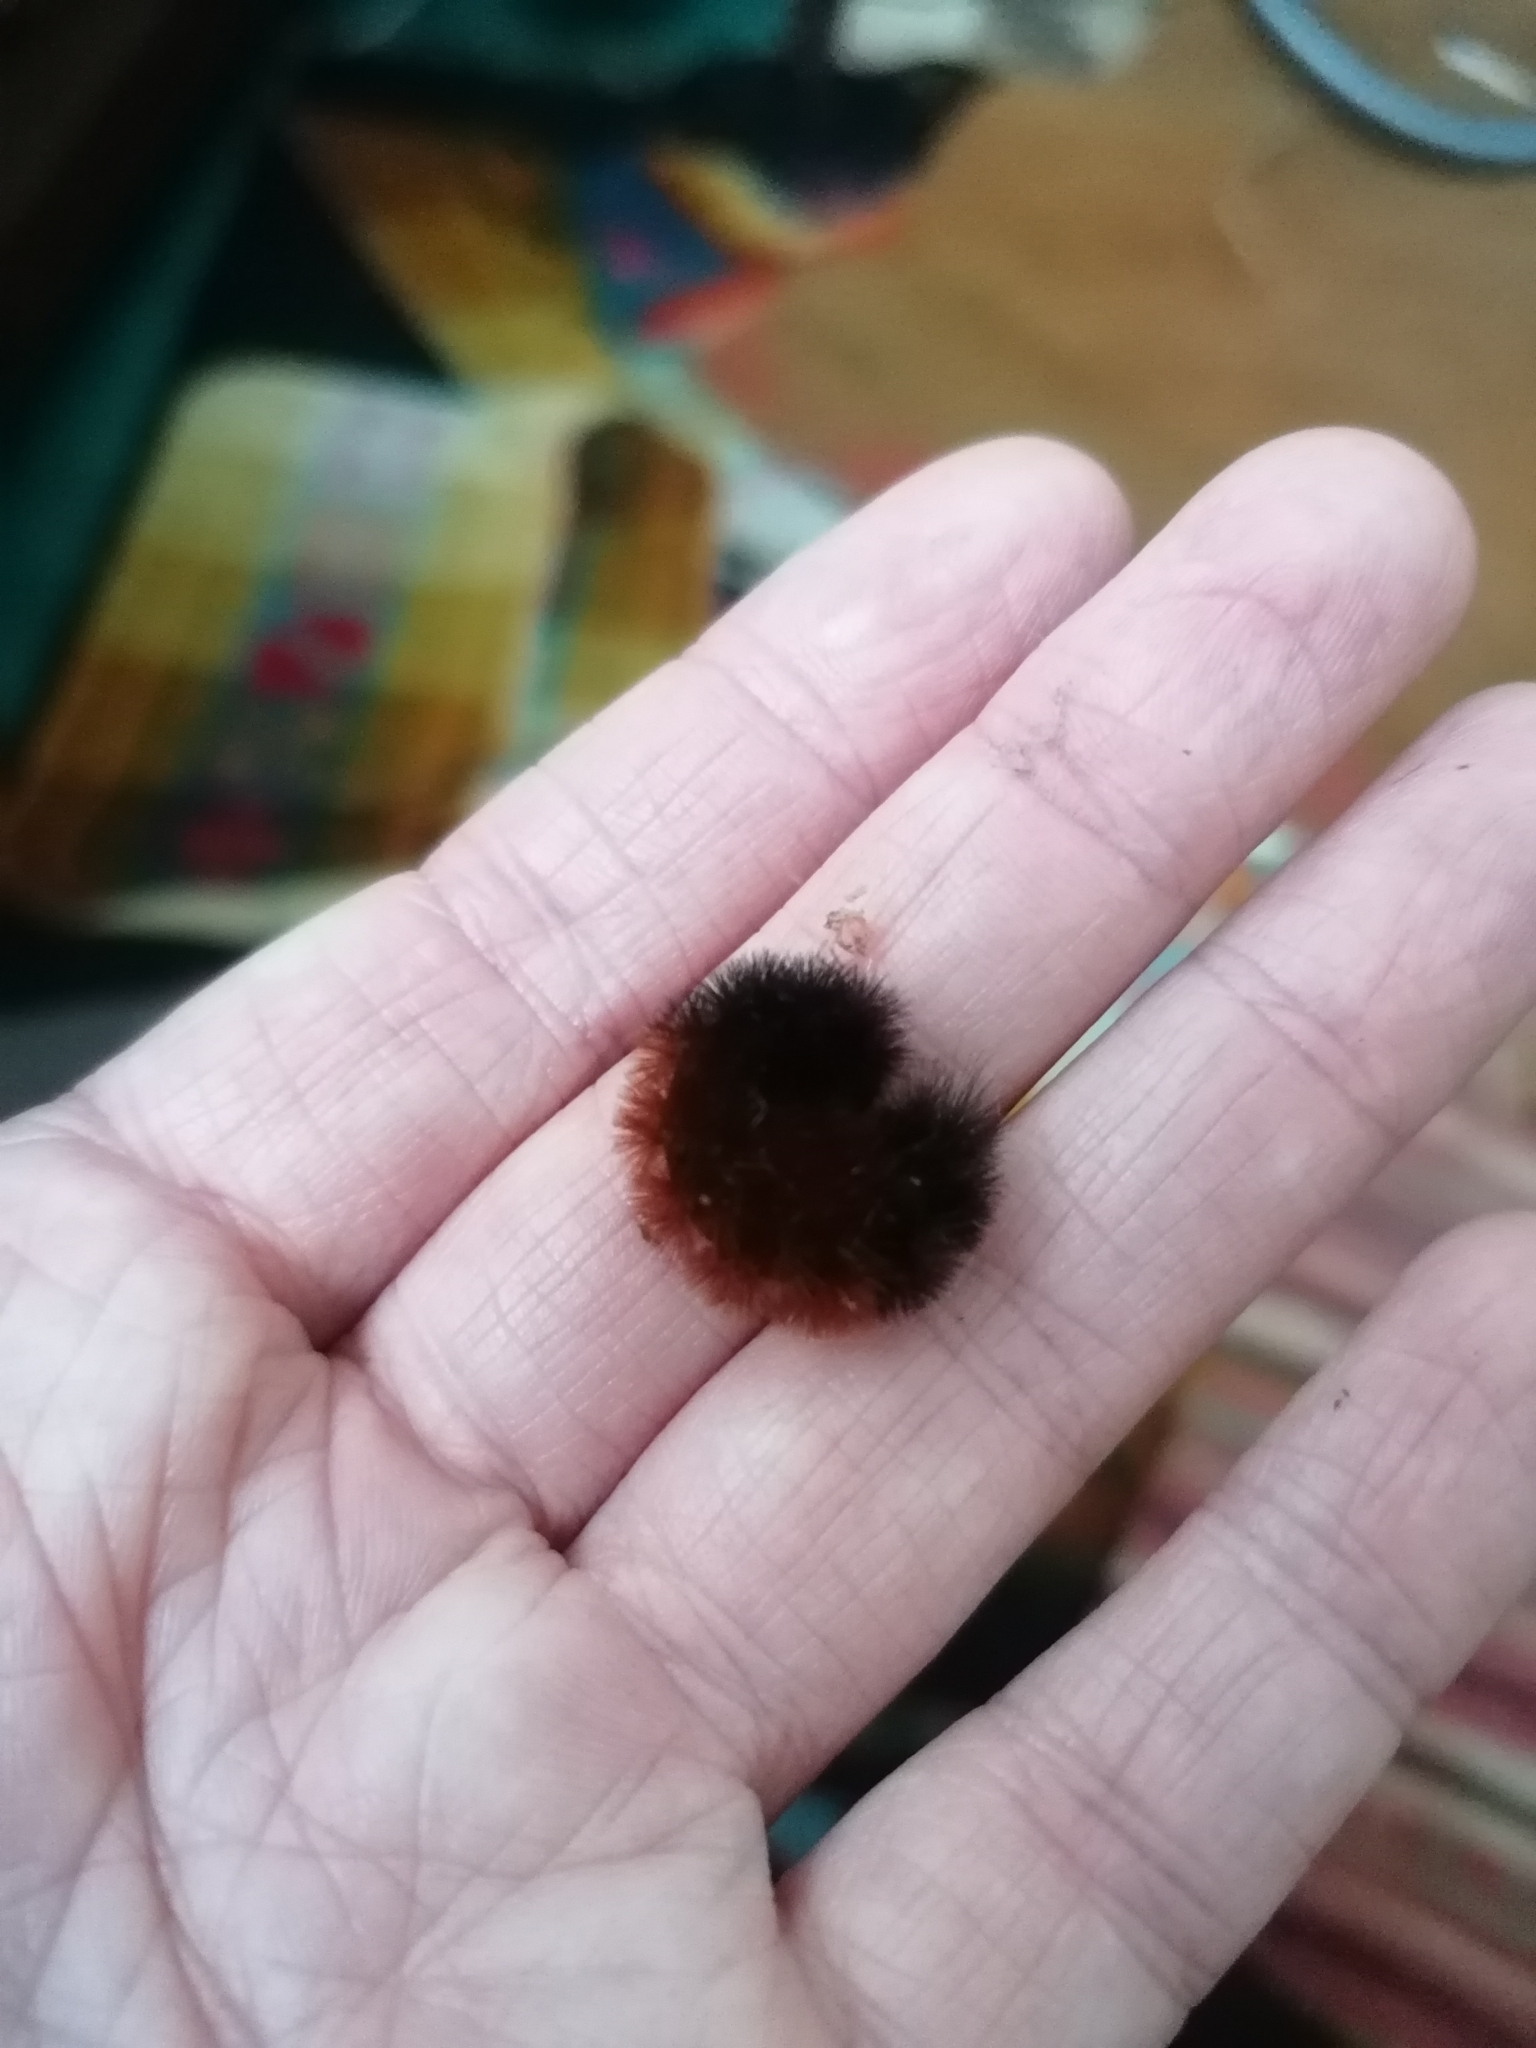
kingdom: Animalia
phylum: Arthropoda
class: Insecta
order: Lepidoptera
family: Erebidae
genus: Pyrrharctia
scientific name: Pyrrharctia isabella
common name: Isabella tiger moth
